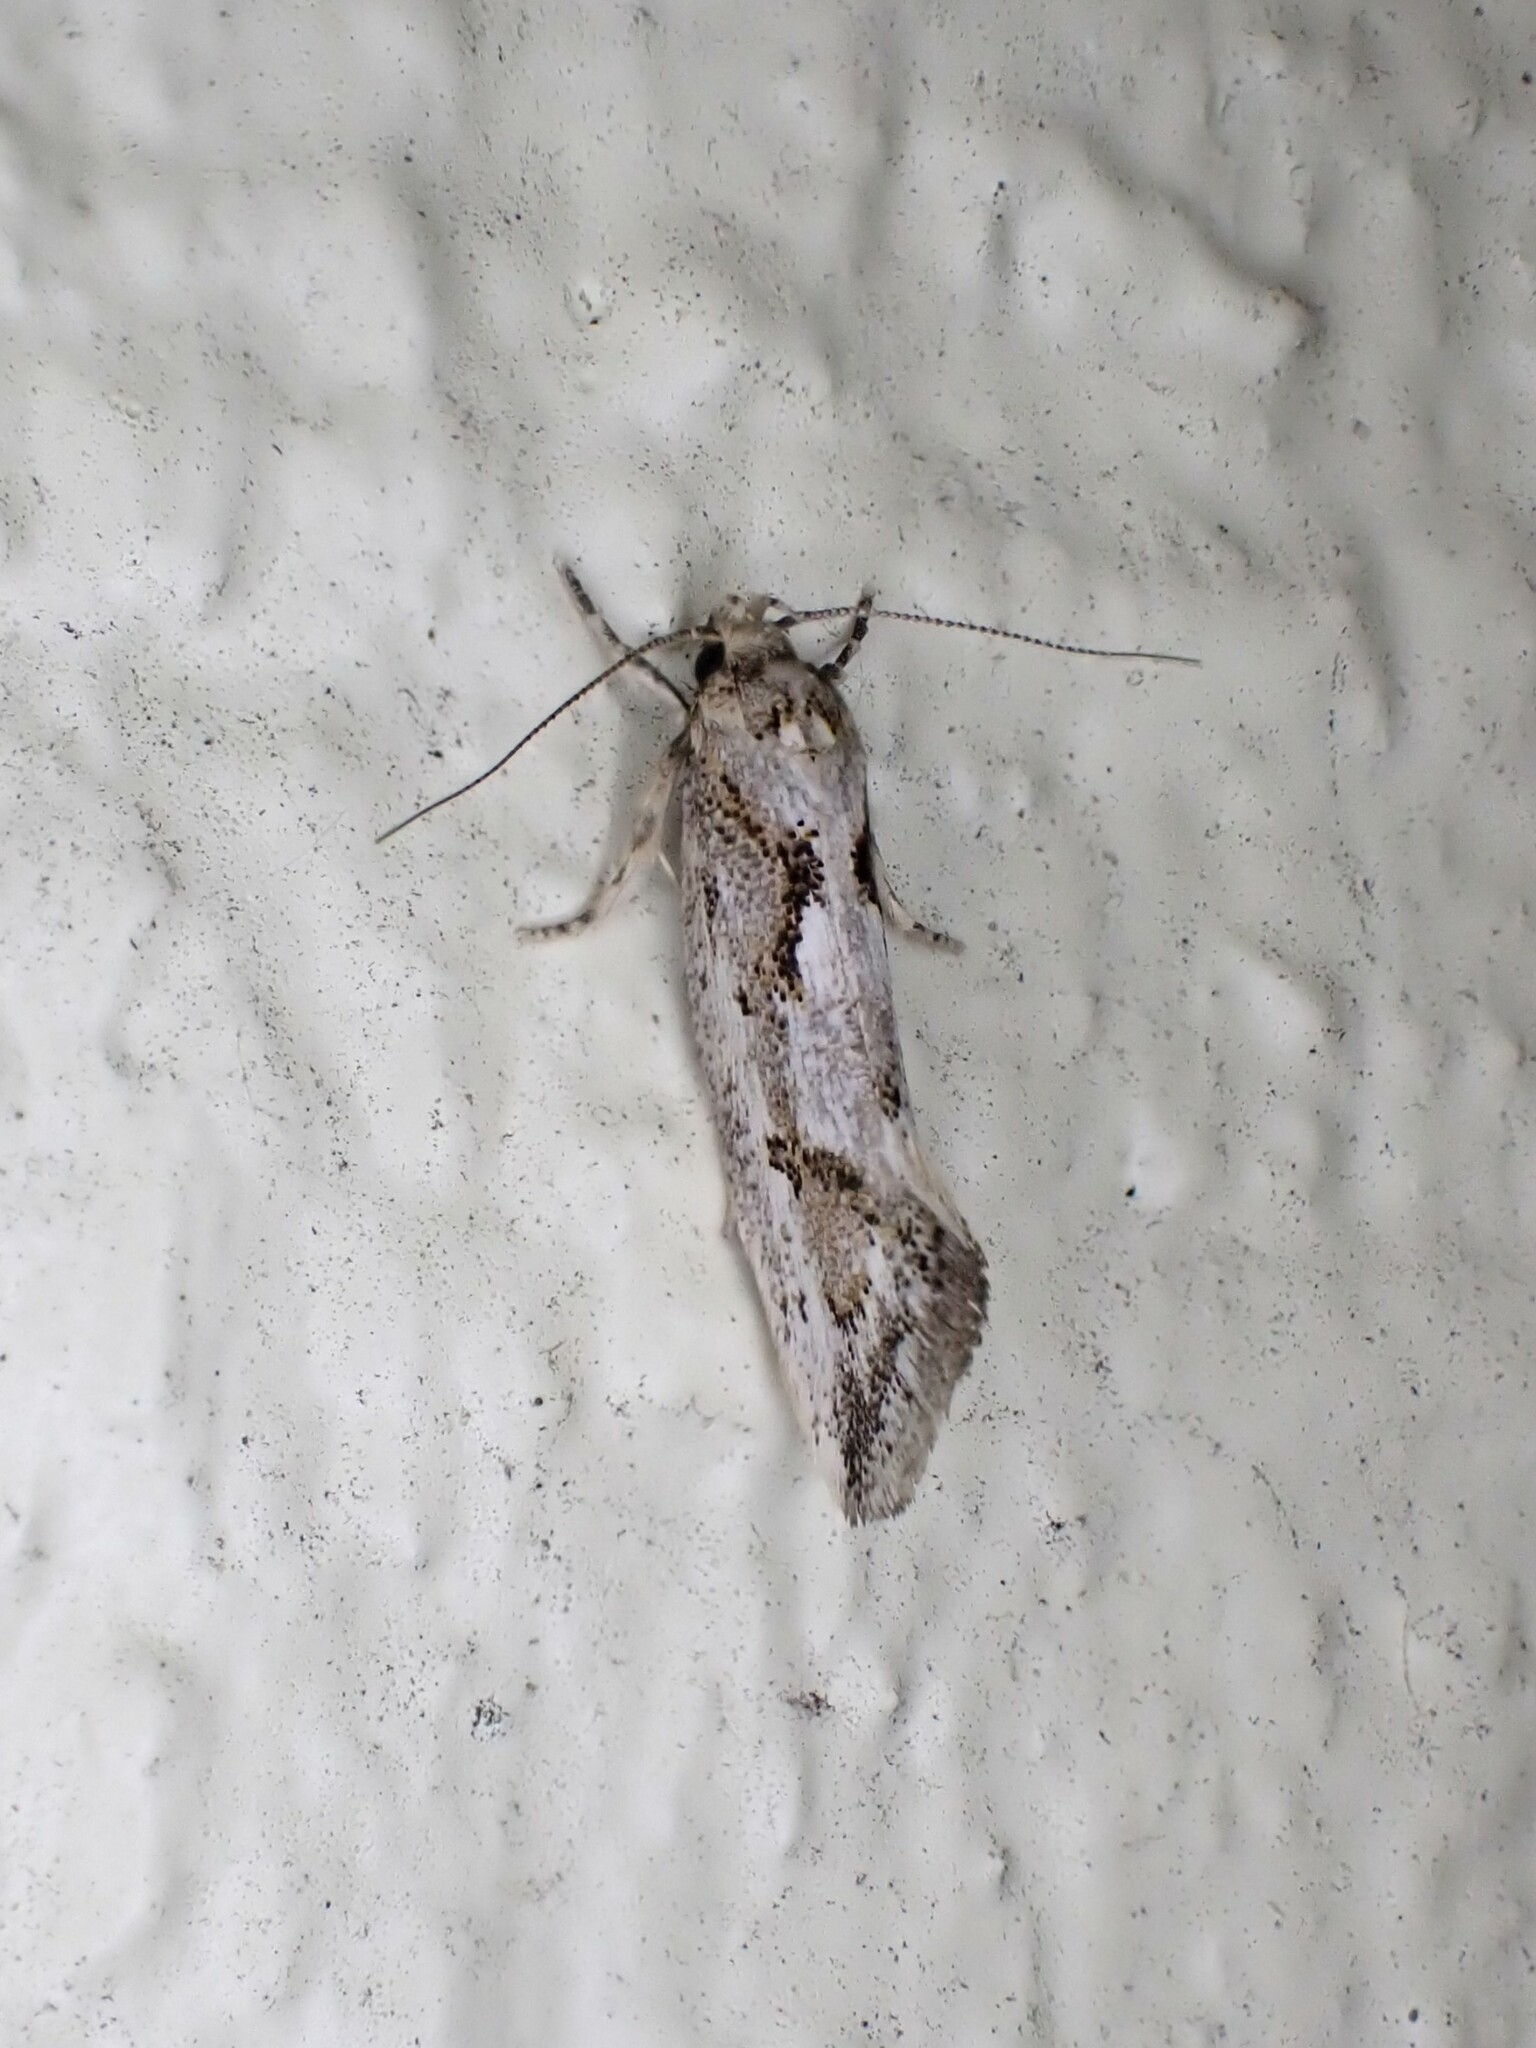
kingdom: Animalia
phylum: Arthropoda
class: Insecta
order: Lepidoptera
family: Oecophoridae
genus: Tingena
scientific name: Tingena hemimochla
